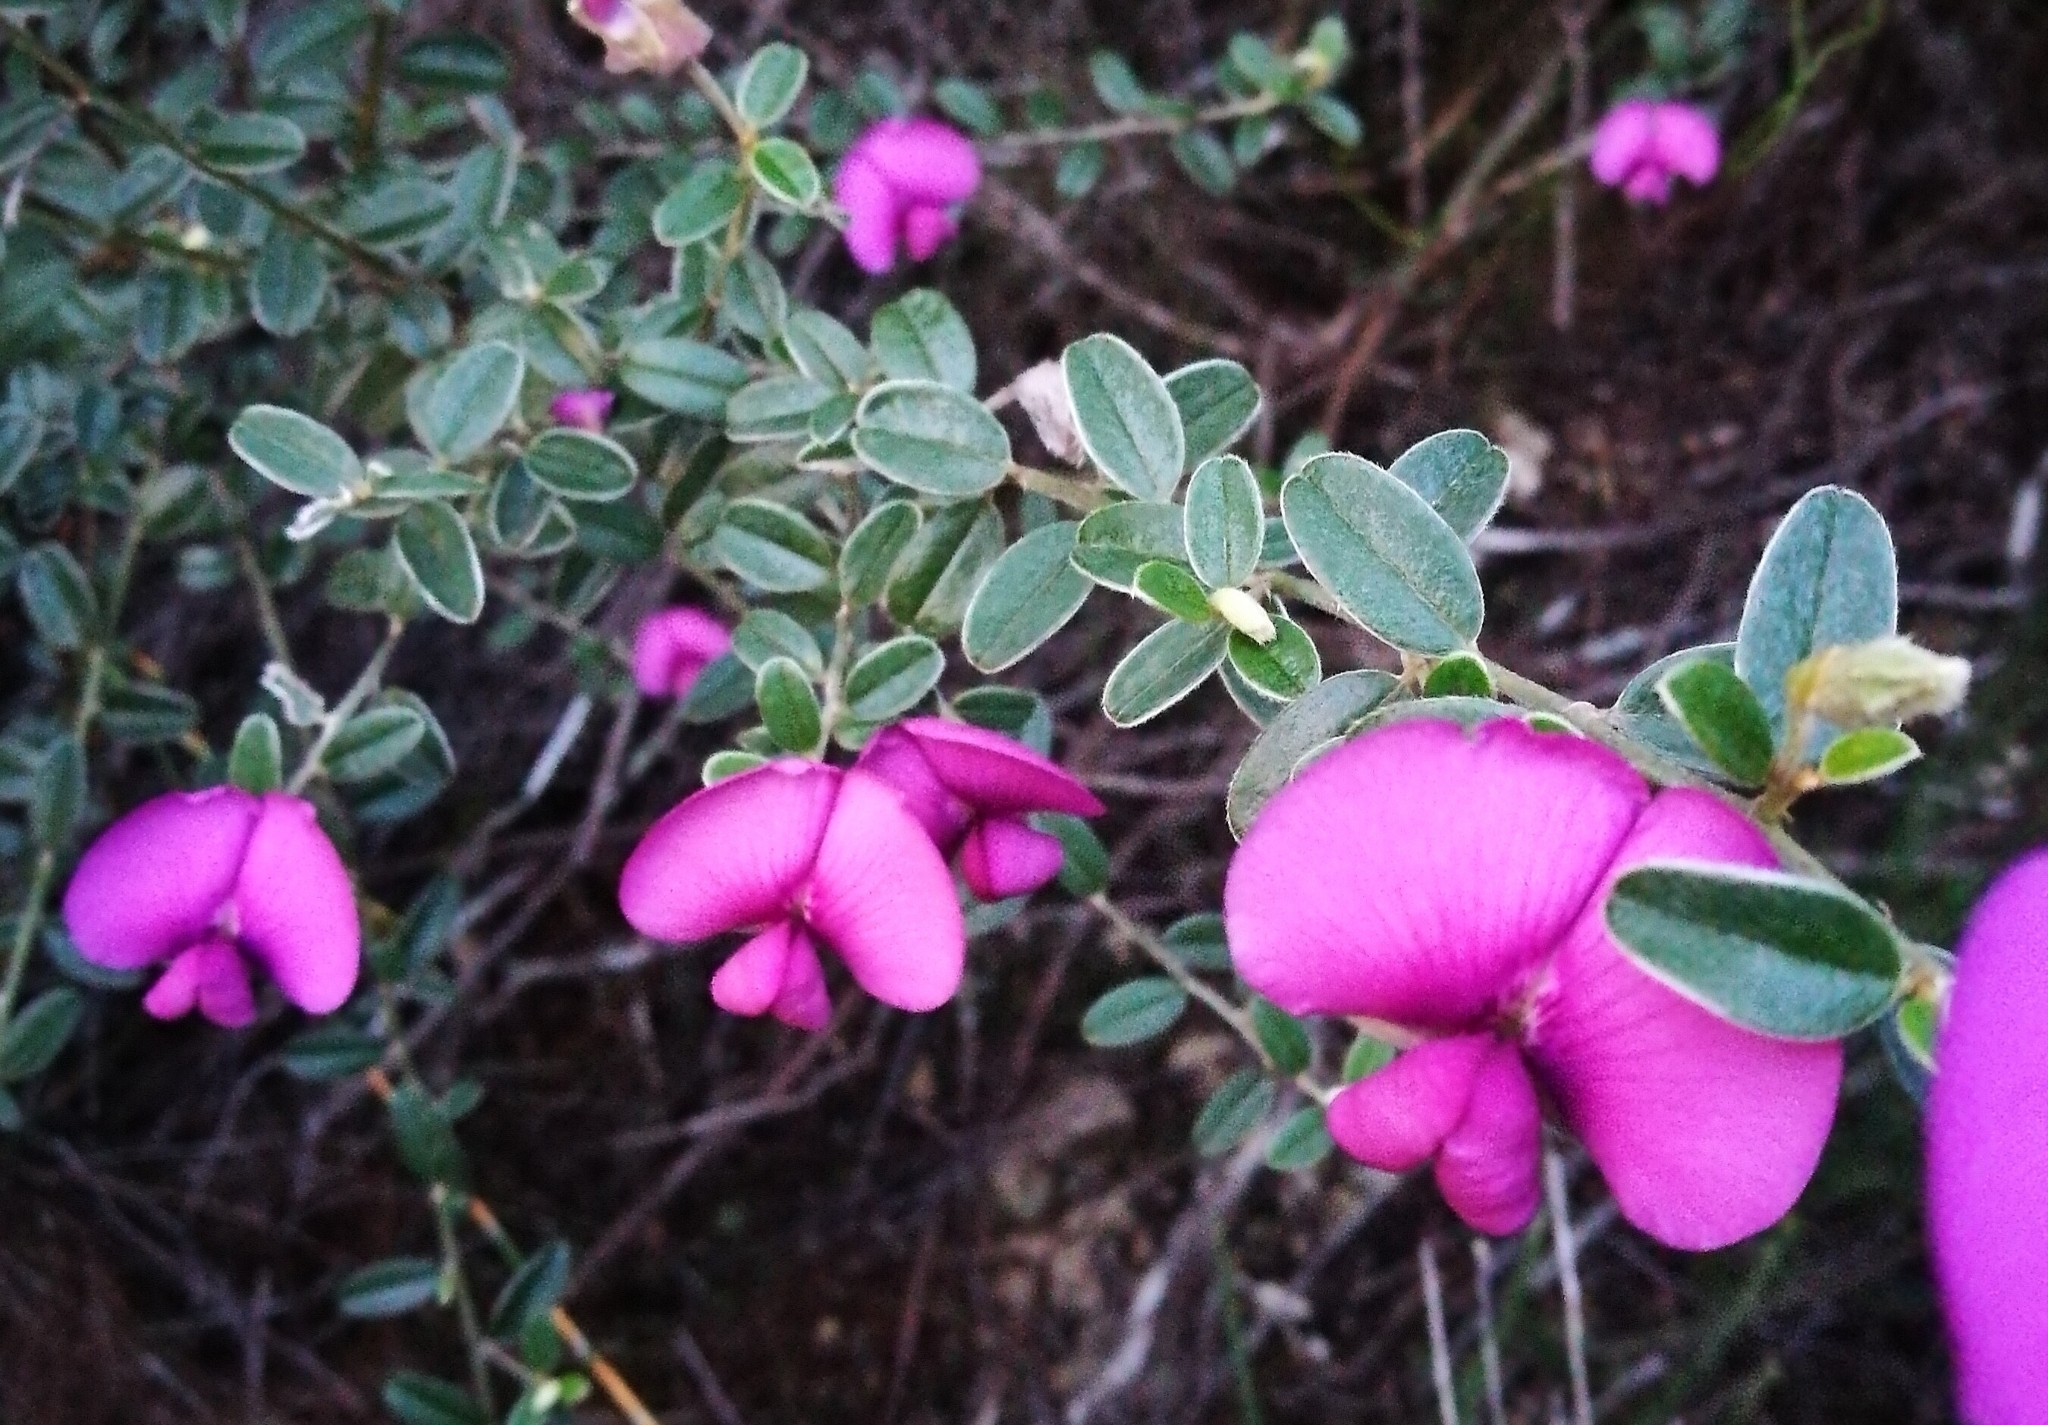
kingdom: Plantae
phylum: Tracheophyta
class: Magnoliopsida
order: Fabales
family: Fabaceae
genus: Podalyria
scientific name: Podalyria buxifolia
